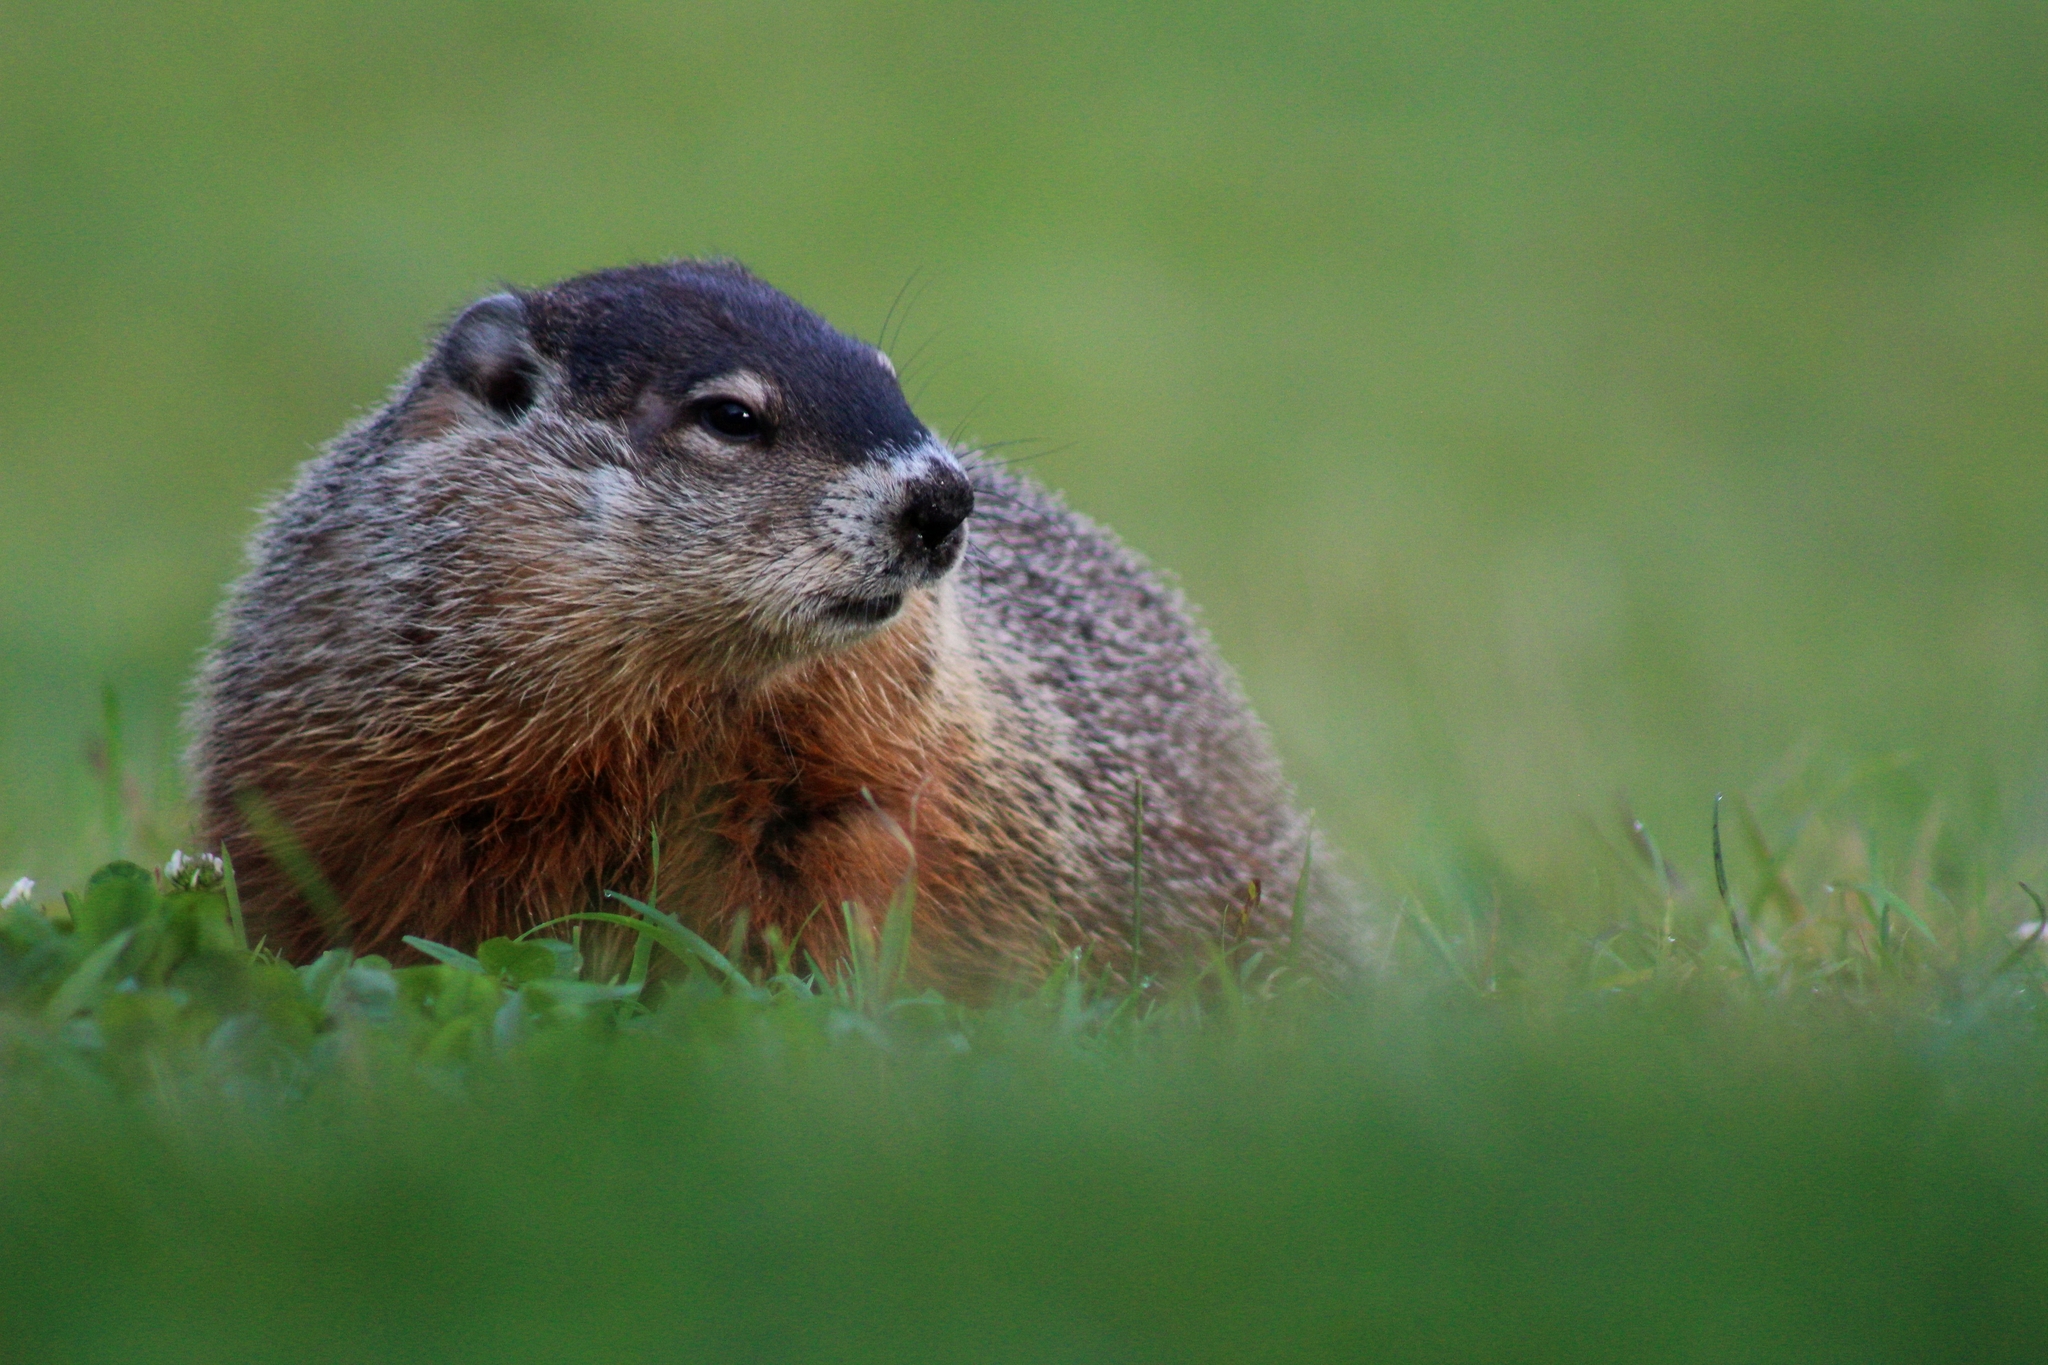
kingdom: Animalia
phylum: Chordata
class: Mammalia
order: Rodentia
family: Sciuridae
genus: Marmota
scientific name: Marmota monax
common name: Groundhog
